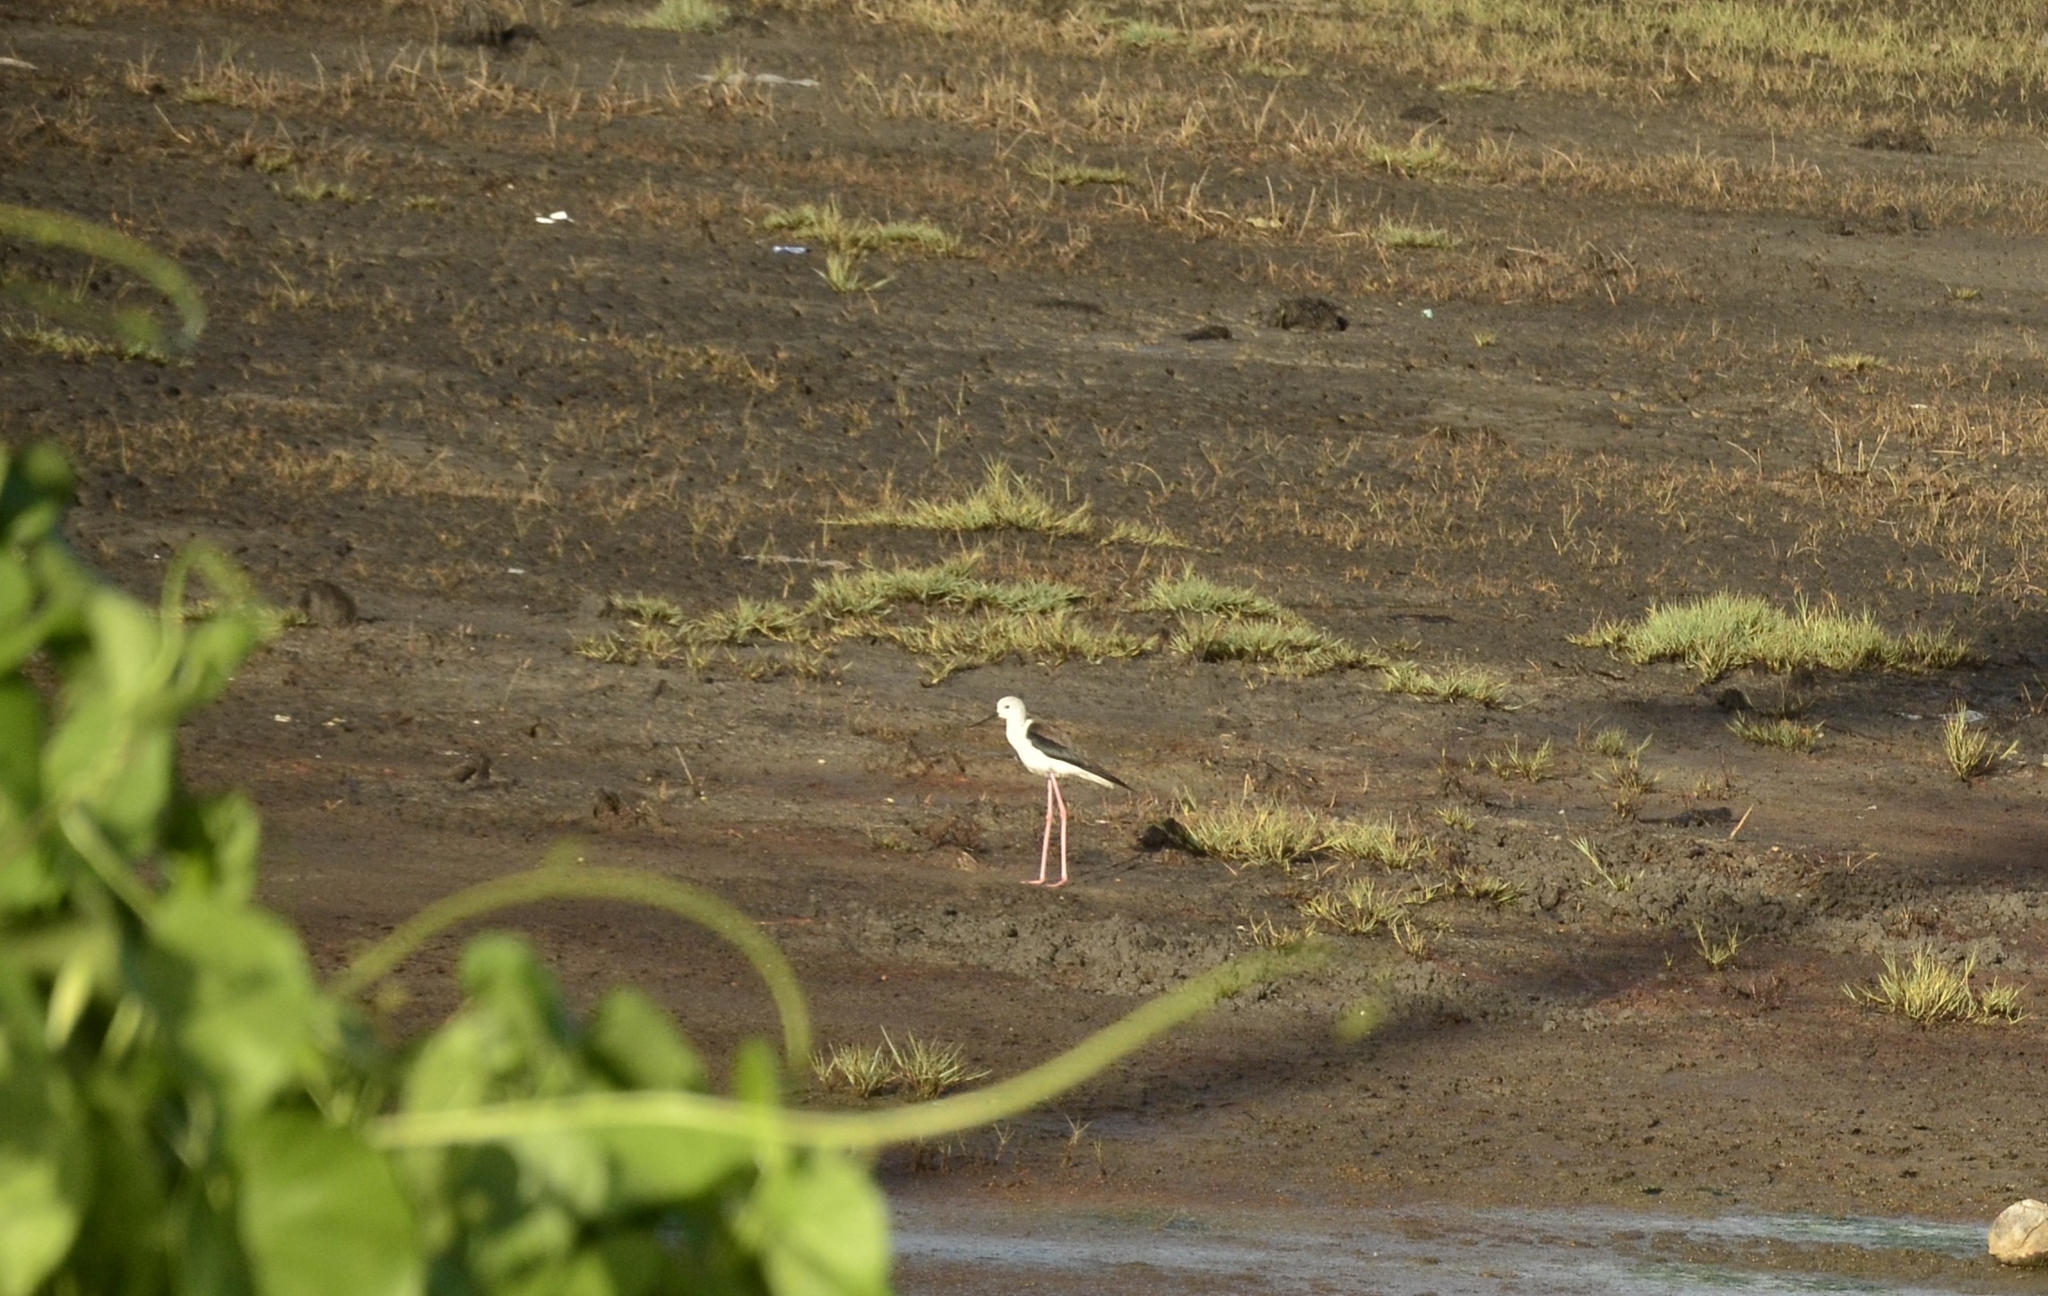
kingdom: Animalia
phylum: Chordata
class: Aves
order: Charadriiformes
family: Recurvirostridae
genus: Himantopus
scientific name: Himantopus himantopus
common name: Black-winged stilt
